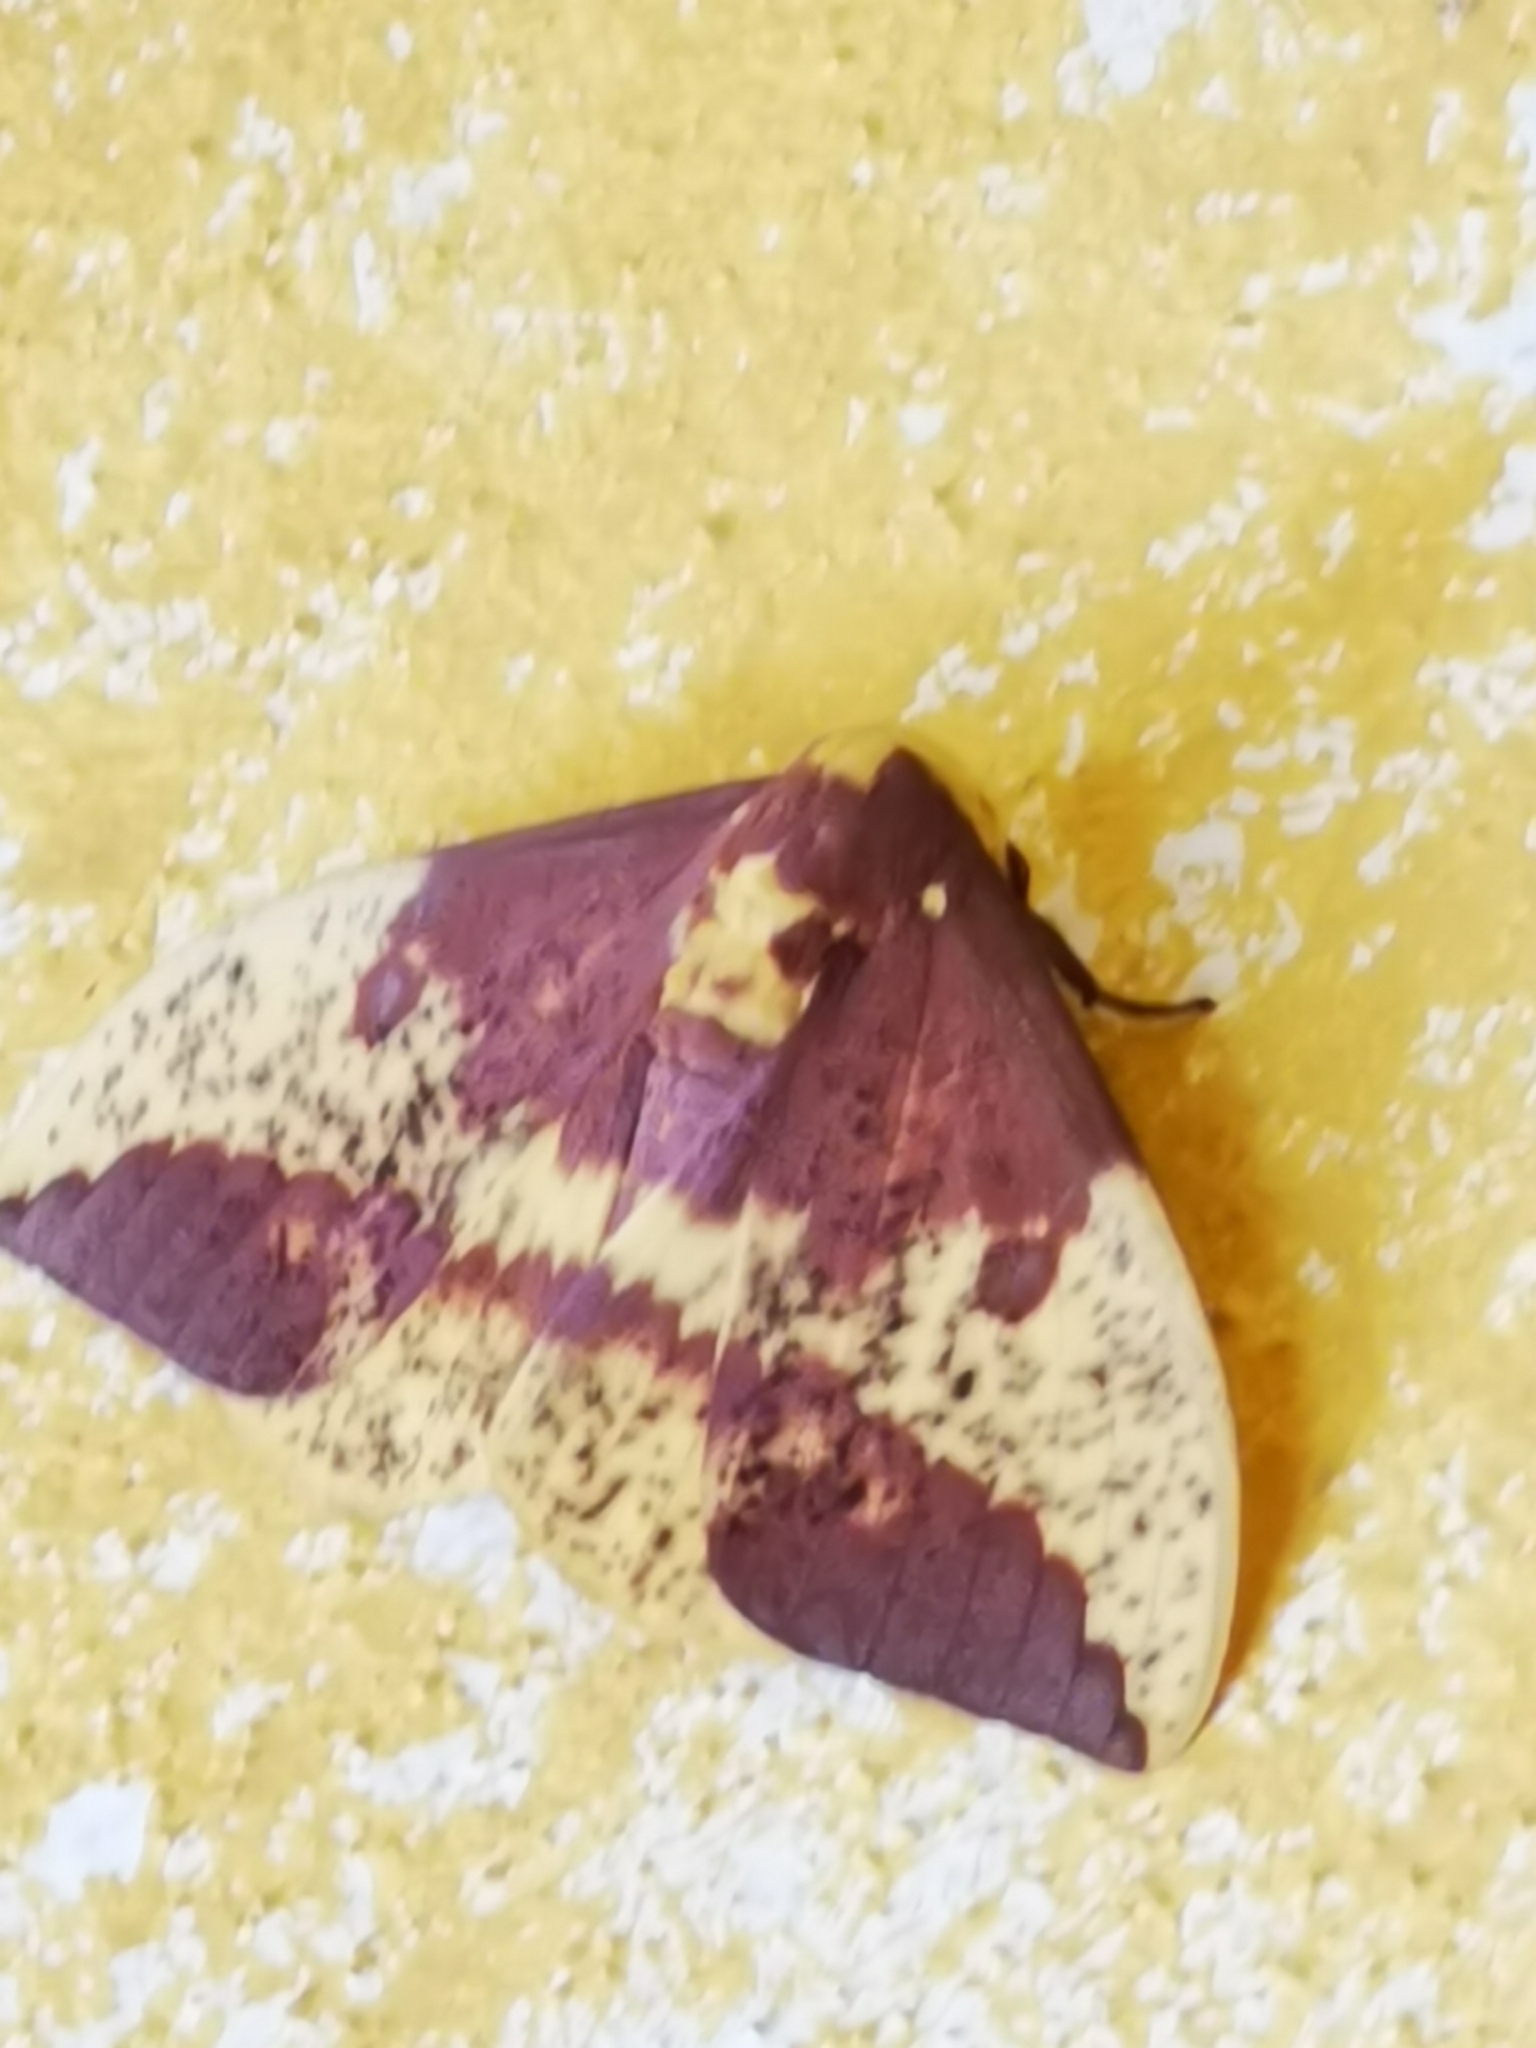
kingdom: Animalia
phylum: Arthropoda
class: Insecta
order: Lepidoptera
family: Saturniidae
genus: Eacles
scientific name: Eacles imperialis
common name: Imperial moth
